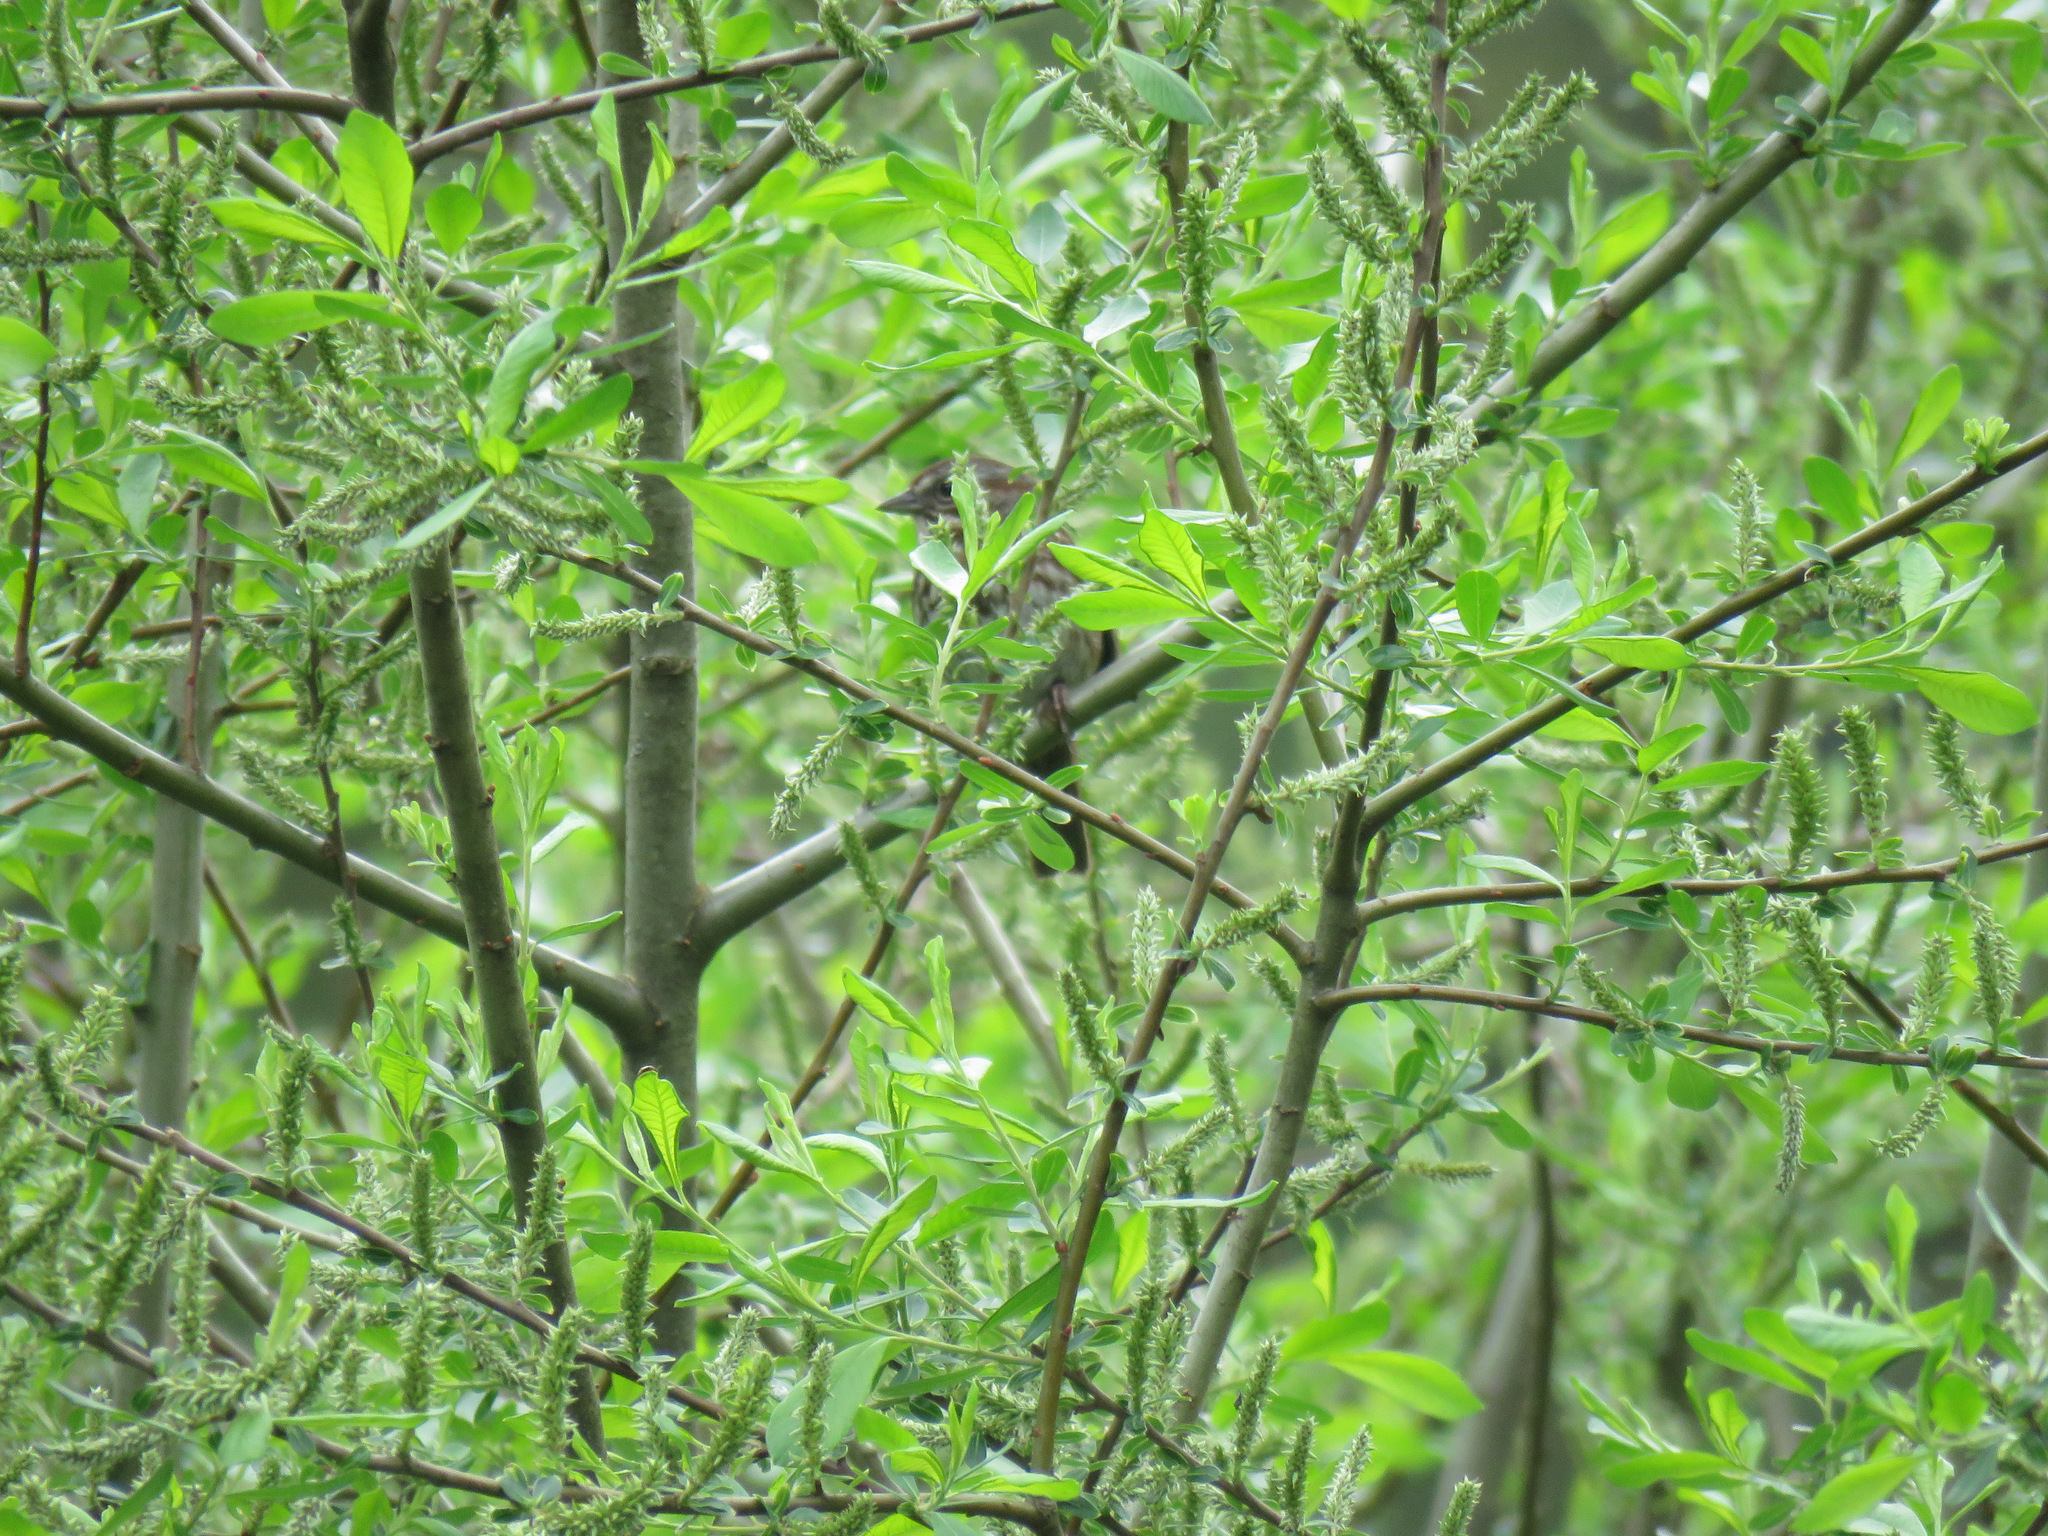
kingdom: Animalia
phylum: Chordata
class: Aves
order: Passeriformes
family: Passerellidae
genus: Melospiza
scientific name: Melospiza melodia
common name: Song sparrow
